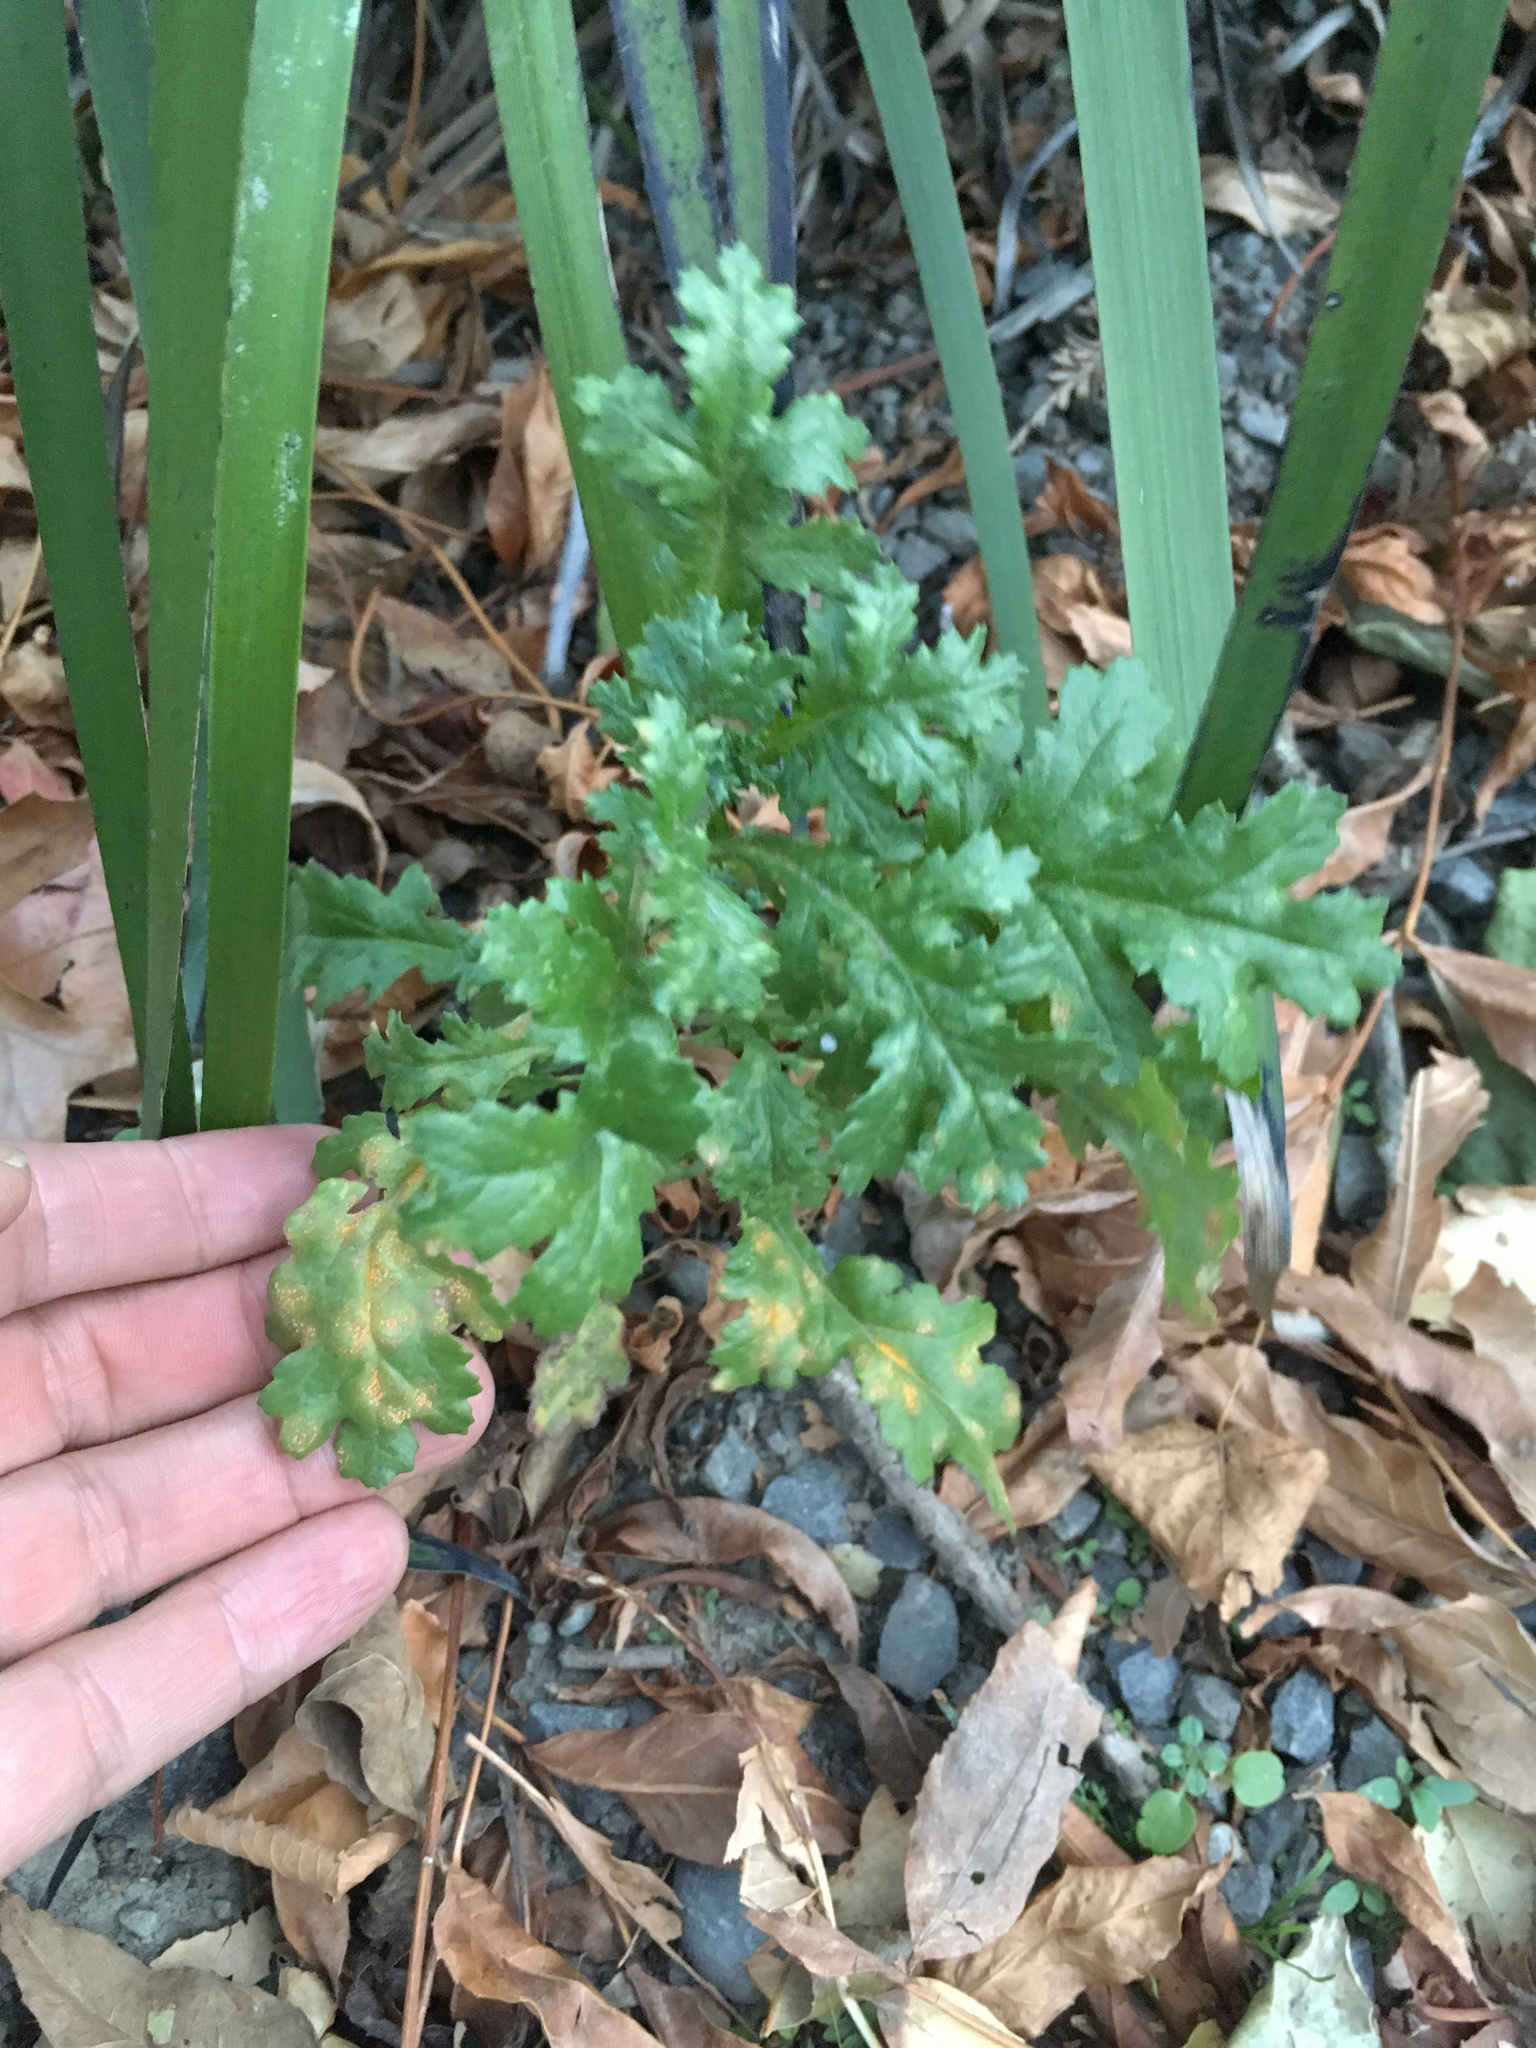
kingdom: Plantae
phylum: Tracheophyta
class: Magnoliopsida
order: Asterales
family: Asteraceae
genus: Senecio
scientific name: Senecio vulgaris
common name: Old-man-in-the-spring
